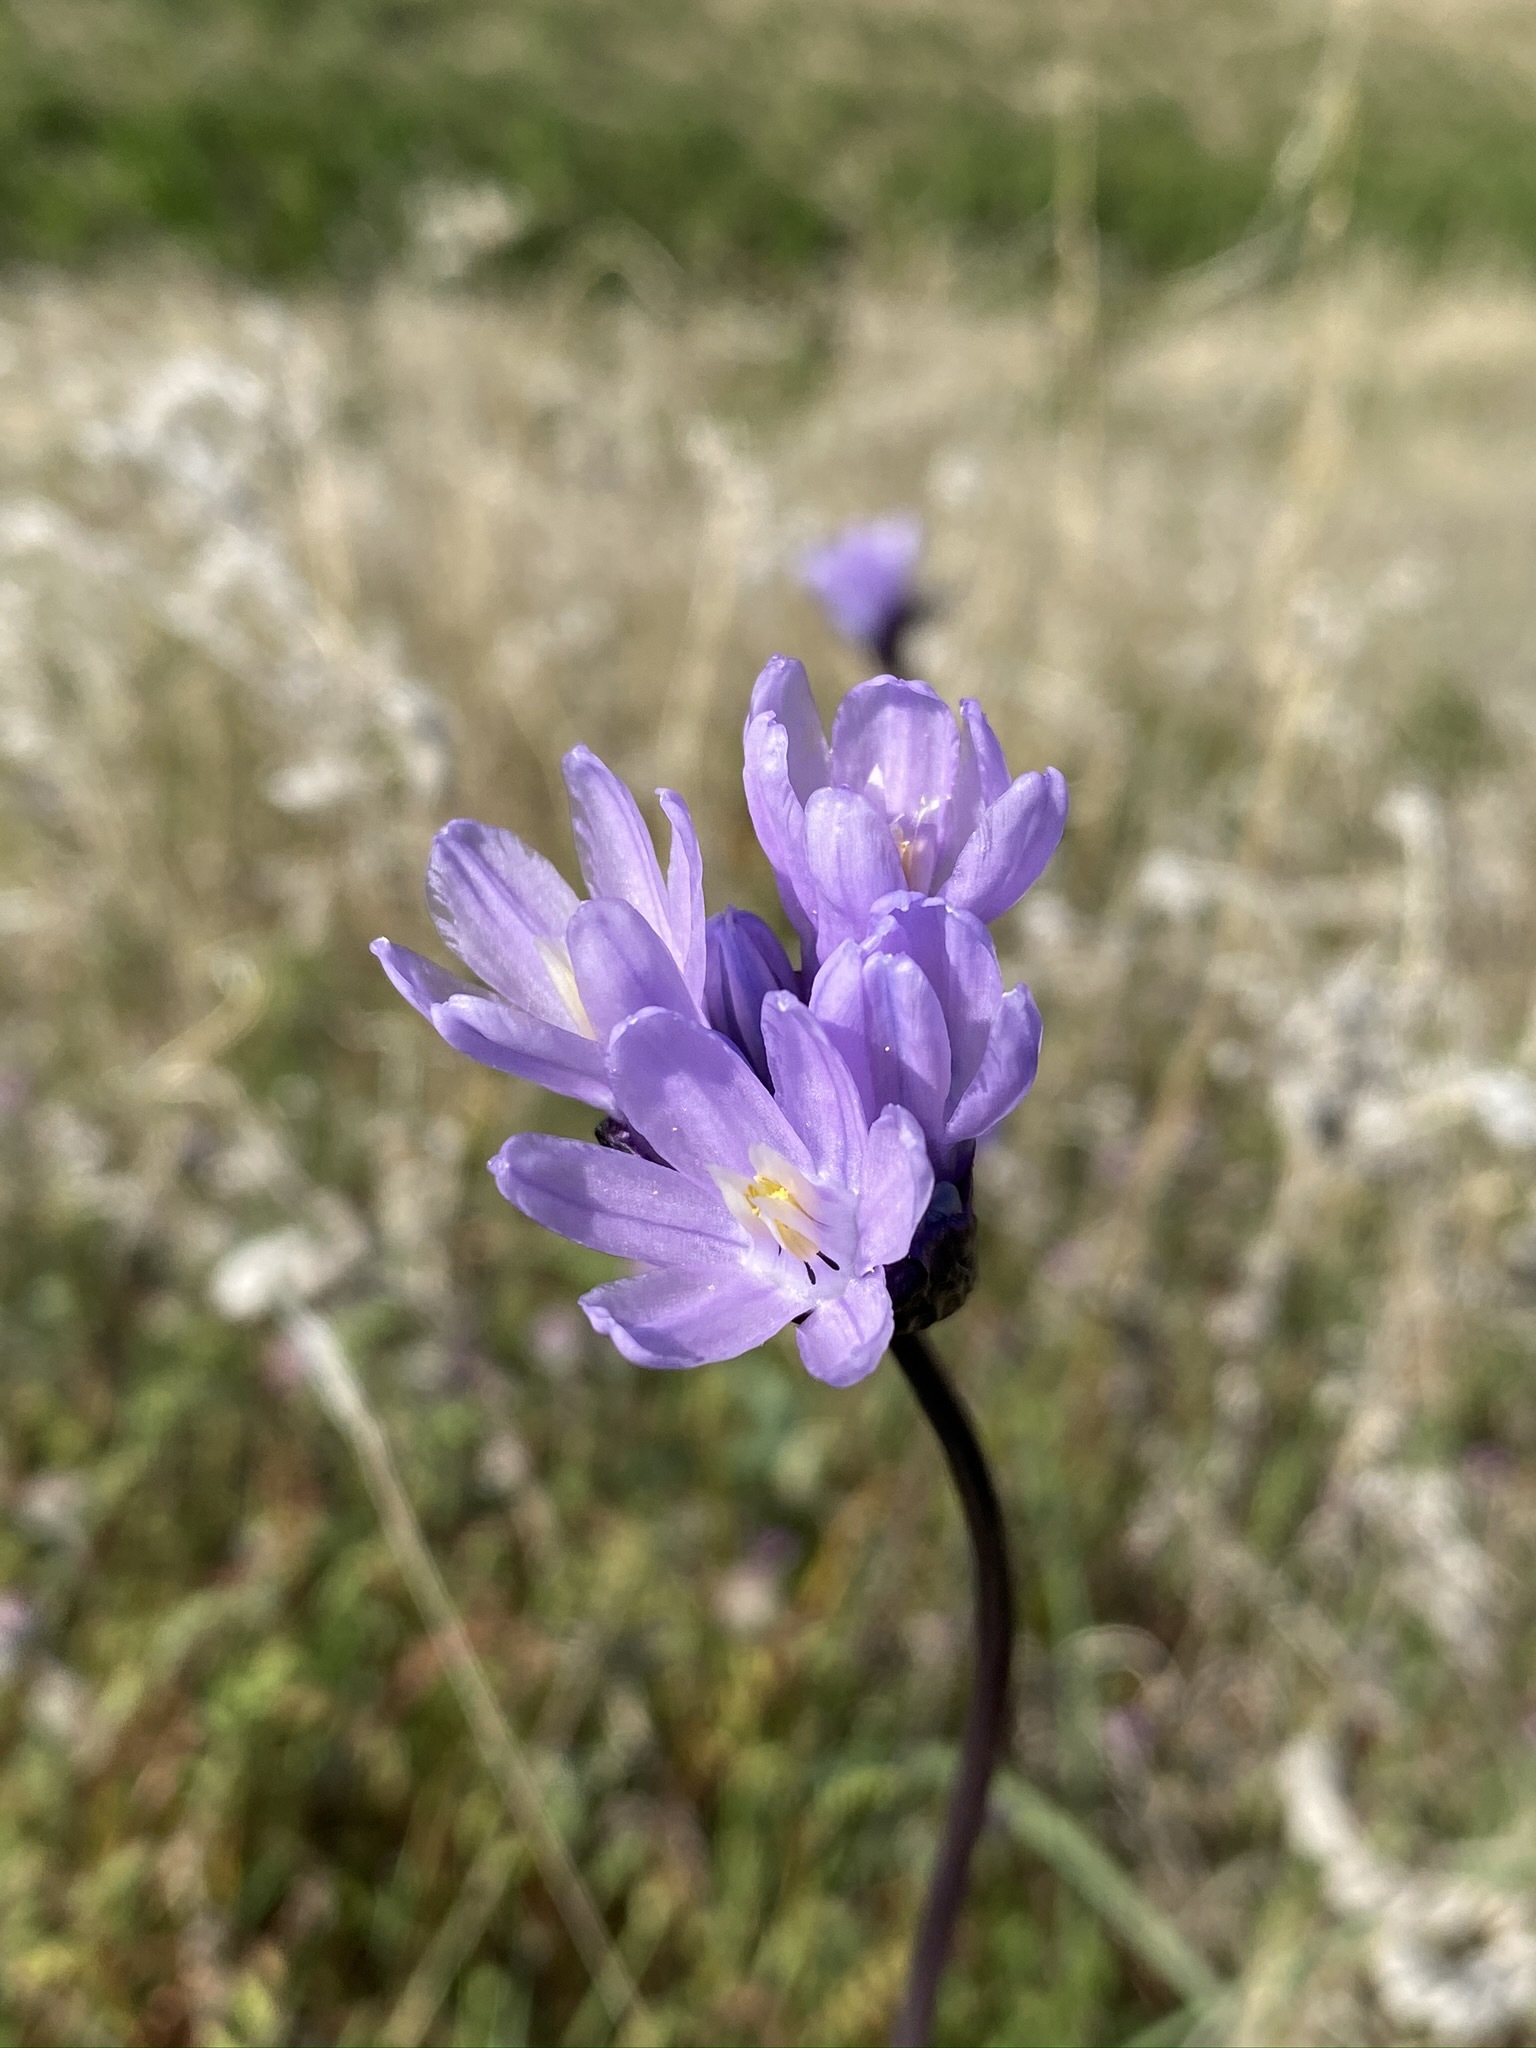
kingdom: Plantae
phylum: Tracheophyta
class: Liliopsida
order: Asparagales
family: Asparagaceae
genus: Dipterostemon
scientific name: Dipterostemon capitatus
